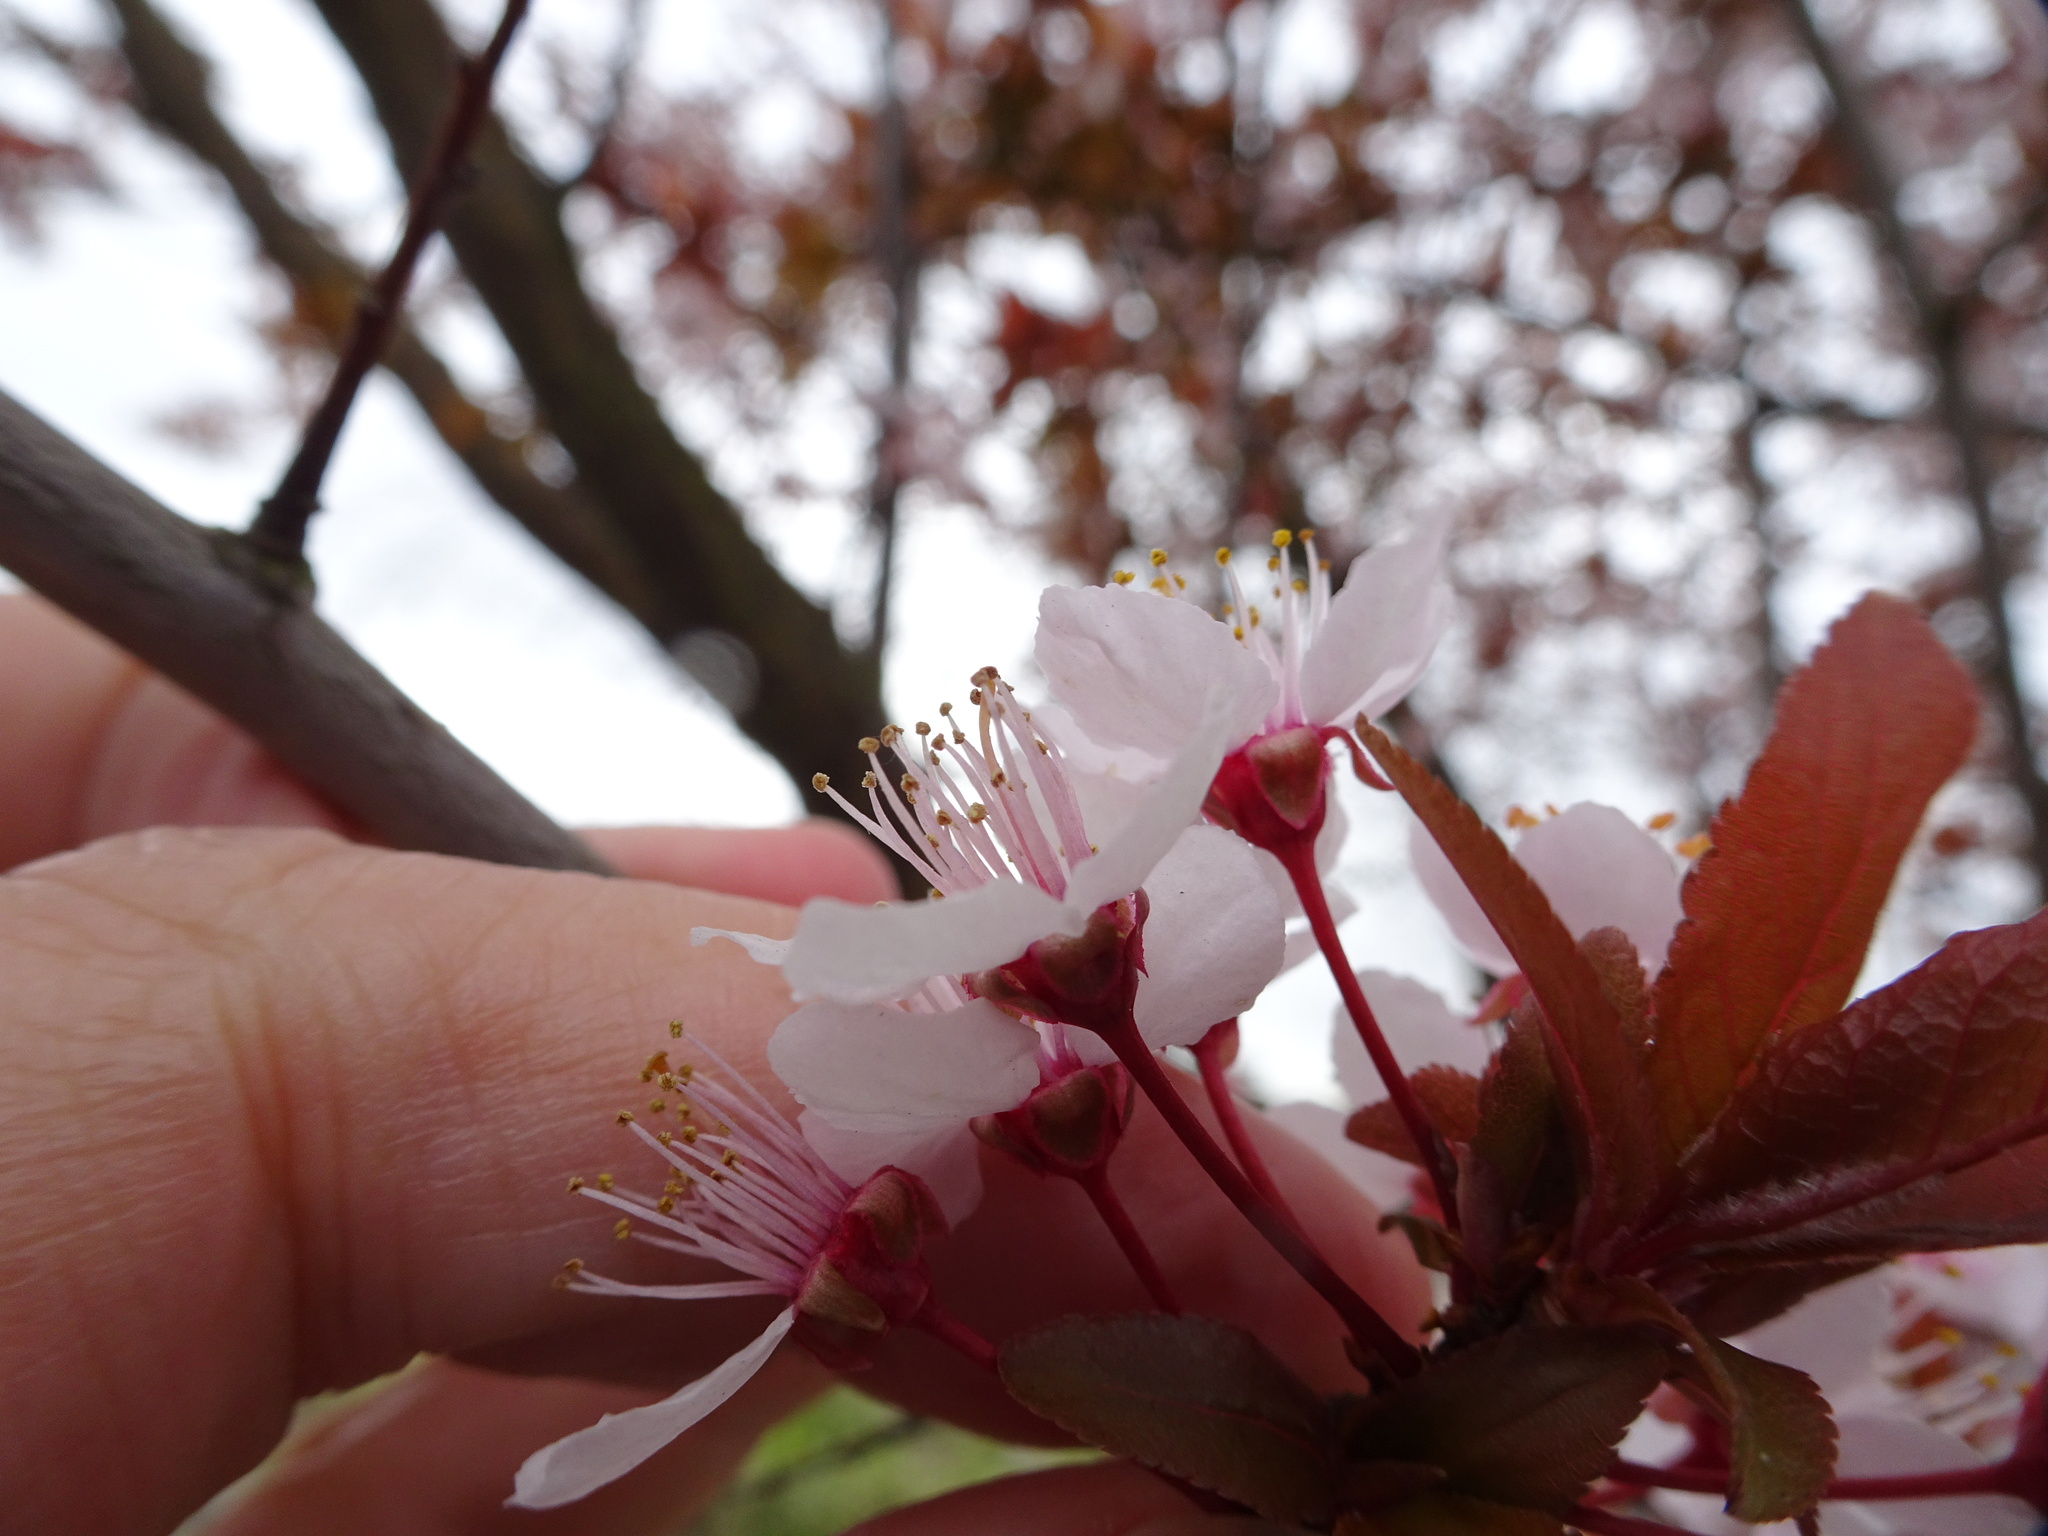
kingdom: Plantae
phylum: Tracheophyta
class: Magnoliopsida
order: Rosales
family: Rosaceae
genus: Prunus
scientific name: Prunus cerasifera
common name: Cherry plum
